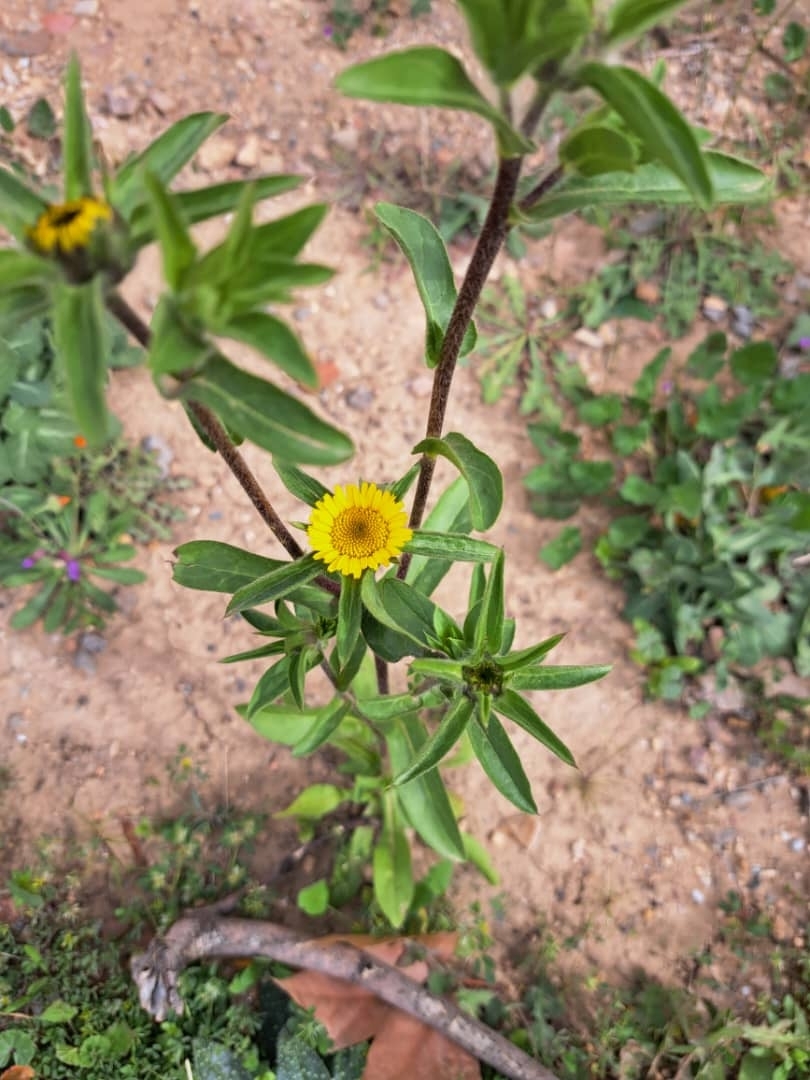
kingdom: Plantae
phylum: Tracheophyta
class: Magnoliopsida
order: Asterales
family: Asteraceae
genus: Pallenis
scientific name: Pallenis spinosa
